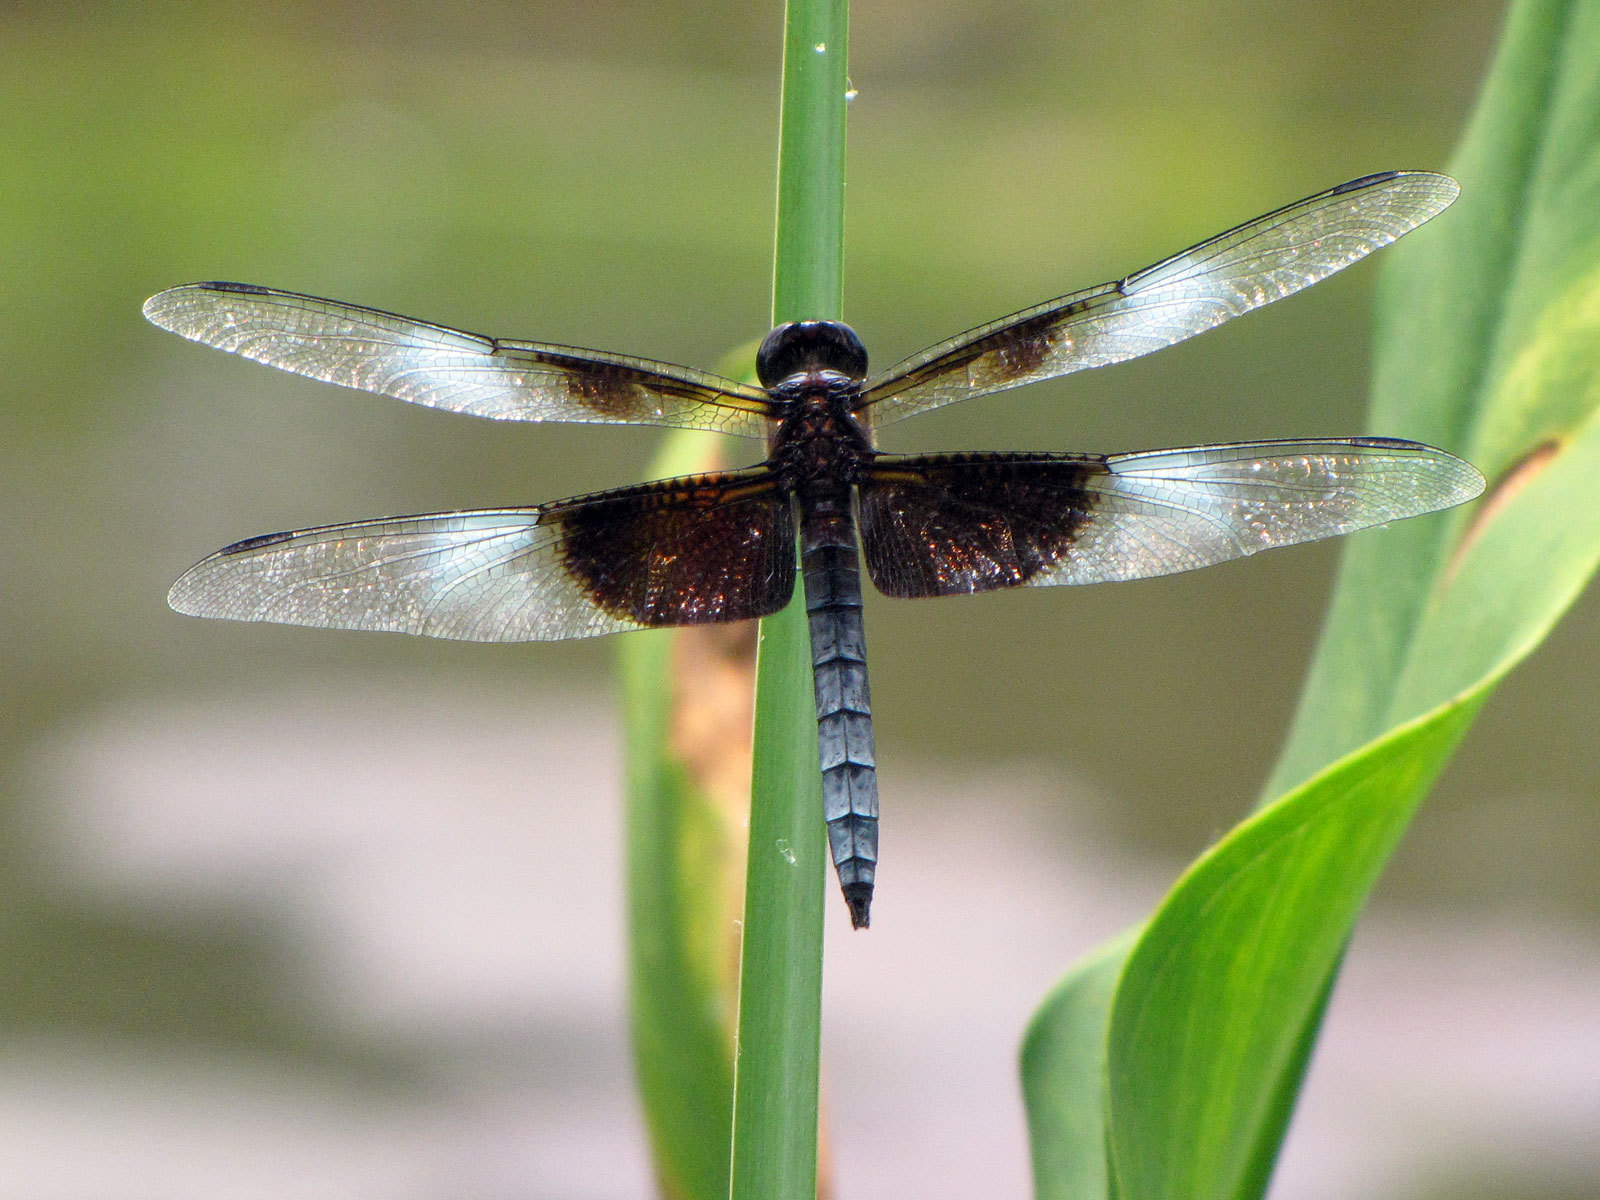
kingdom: Animalia
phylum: Arthropoda
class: Insecta
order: Odonata
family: Libellulidae
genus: Libellula
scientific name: Libellula luctuosa
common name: Widow skimmer
